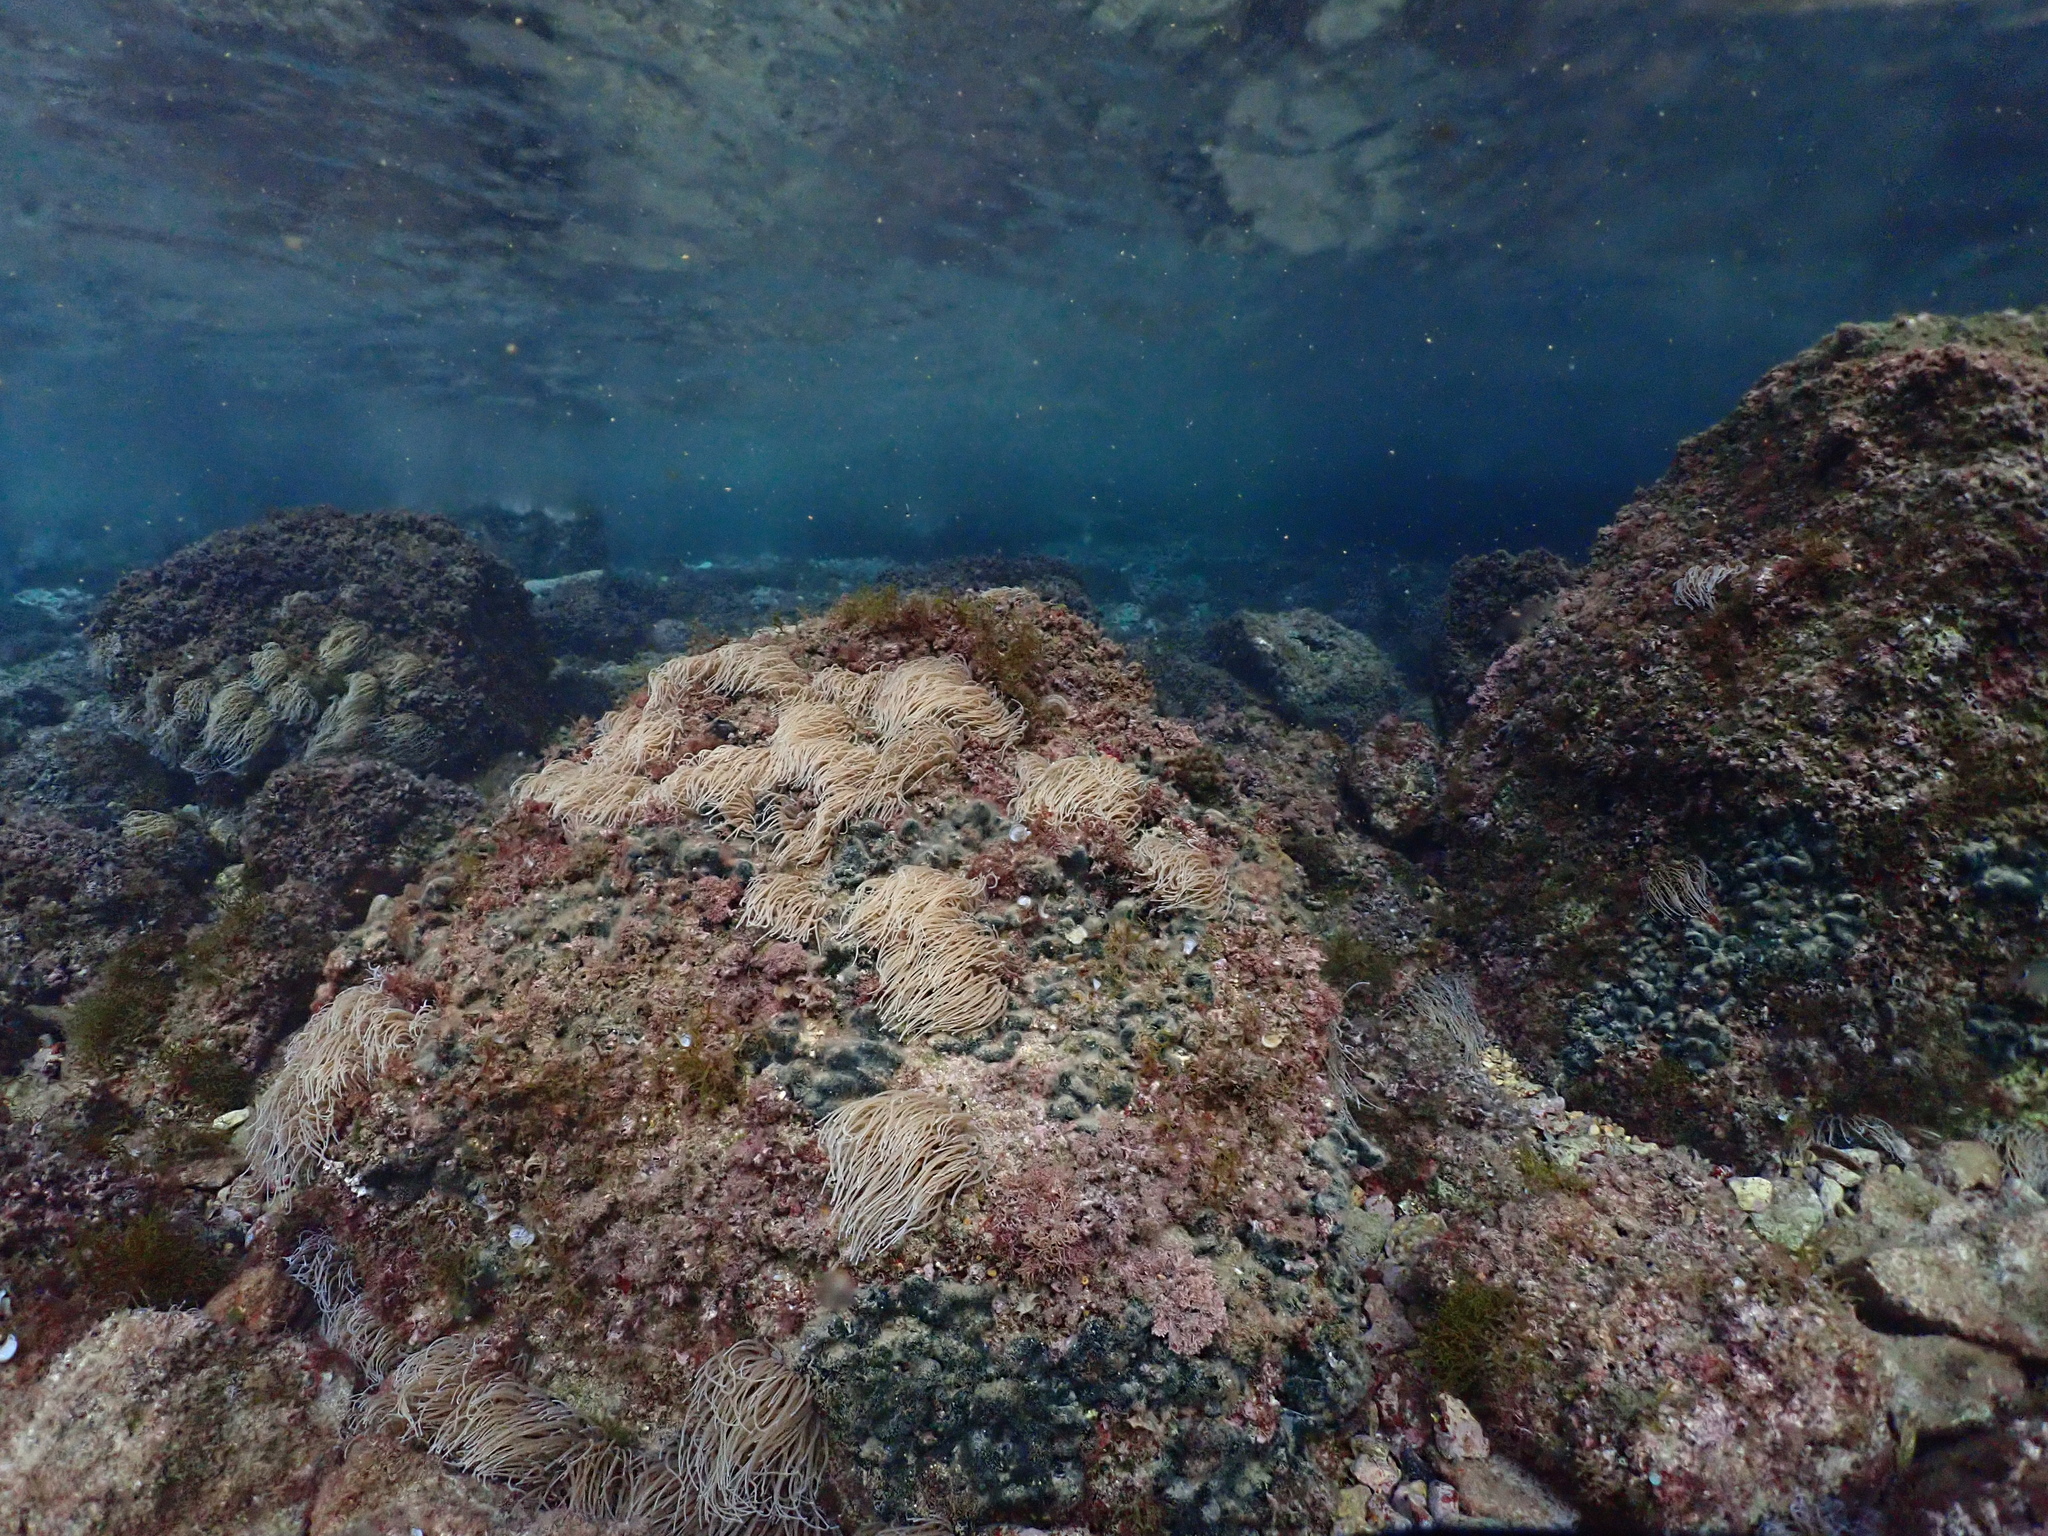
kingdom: Animalia
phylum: Cnidaria
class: Anthozoa
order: Actiniaria
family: Actiniidae
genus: Anemonia
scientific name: Anemonia viridis
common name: Snakelocks anemone
